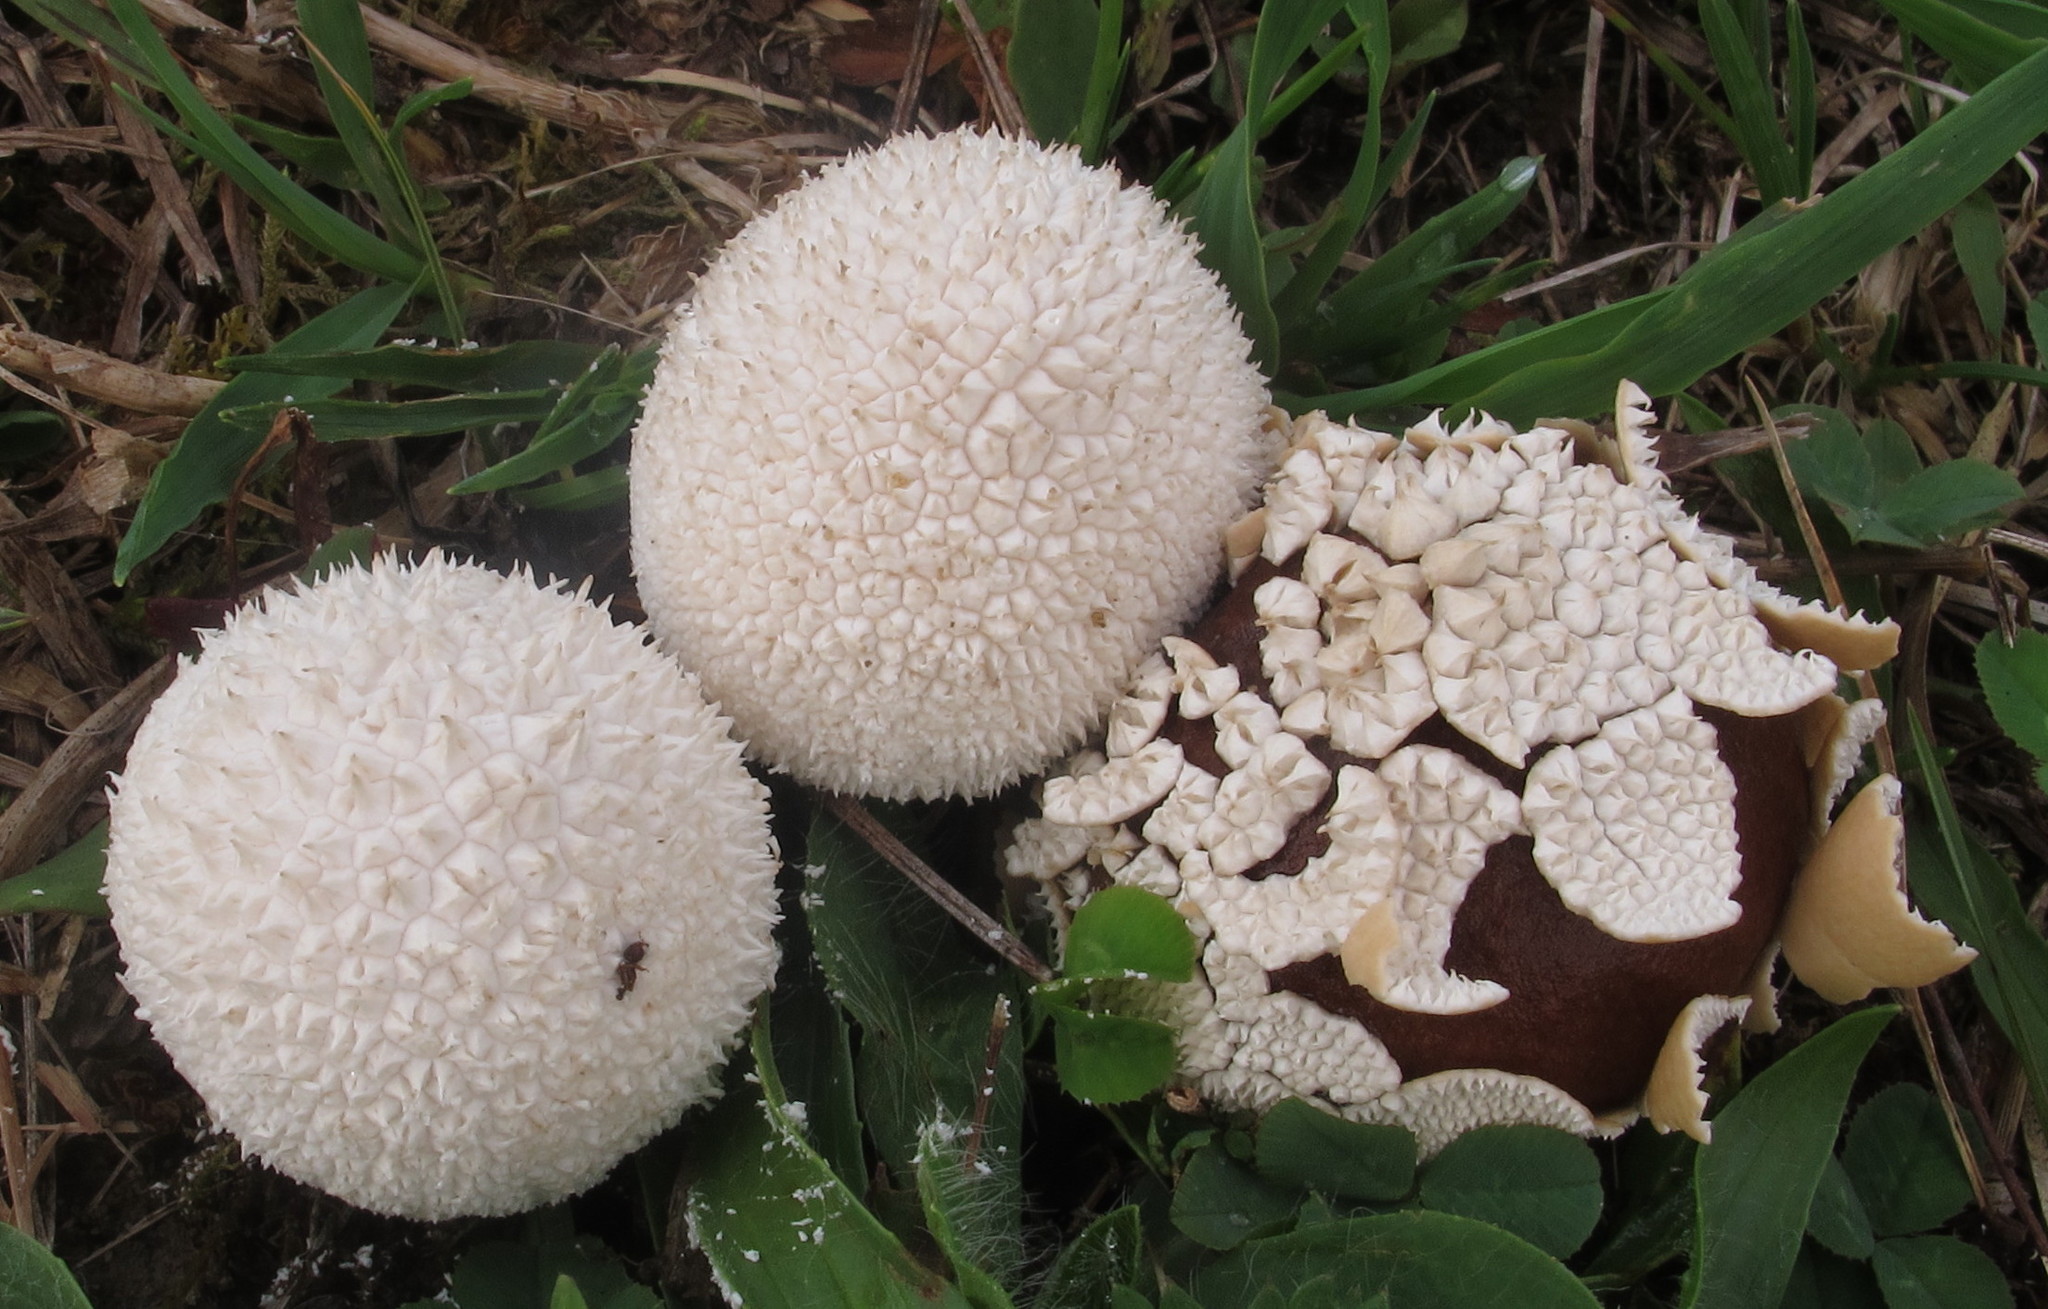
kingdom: Fungi
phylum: Basidiomycota
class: Agaricomycetes
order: Agaricales
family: Agaricaceae
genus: Lycoperdon
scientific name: Lycoperdon marginatum
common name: Peeling puffball
